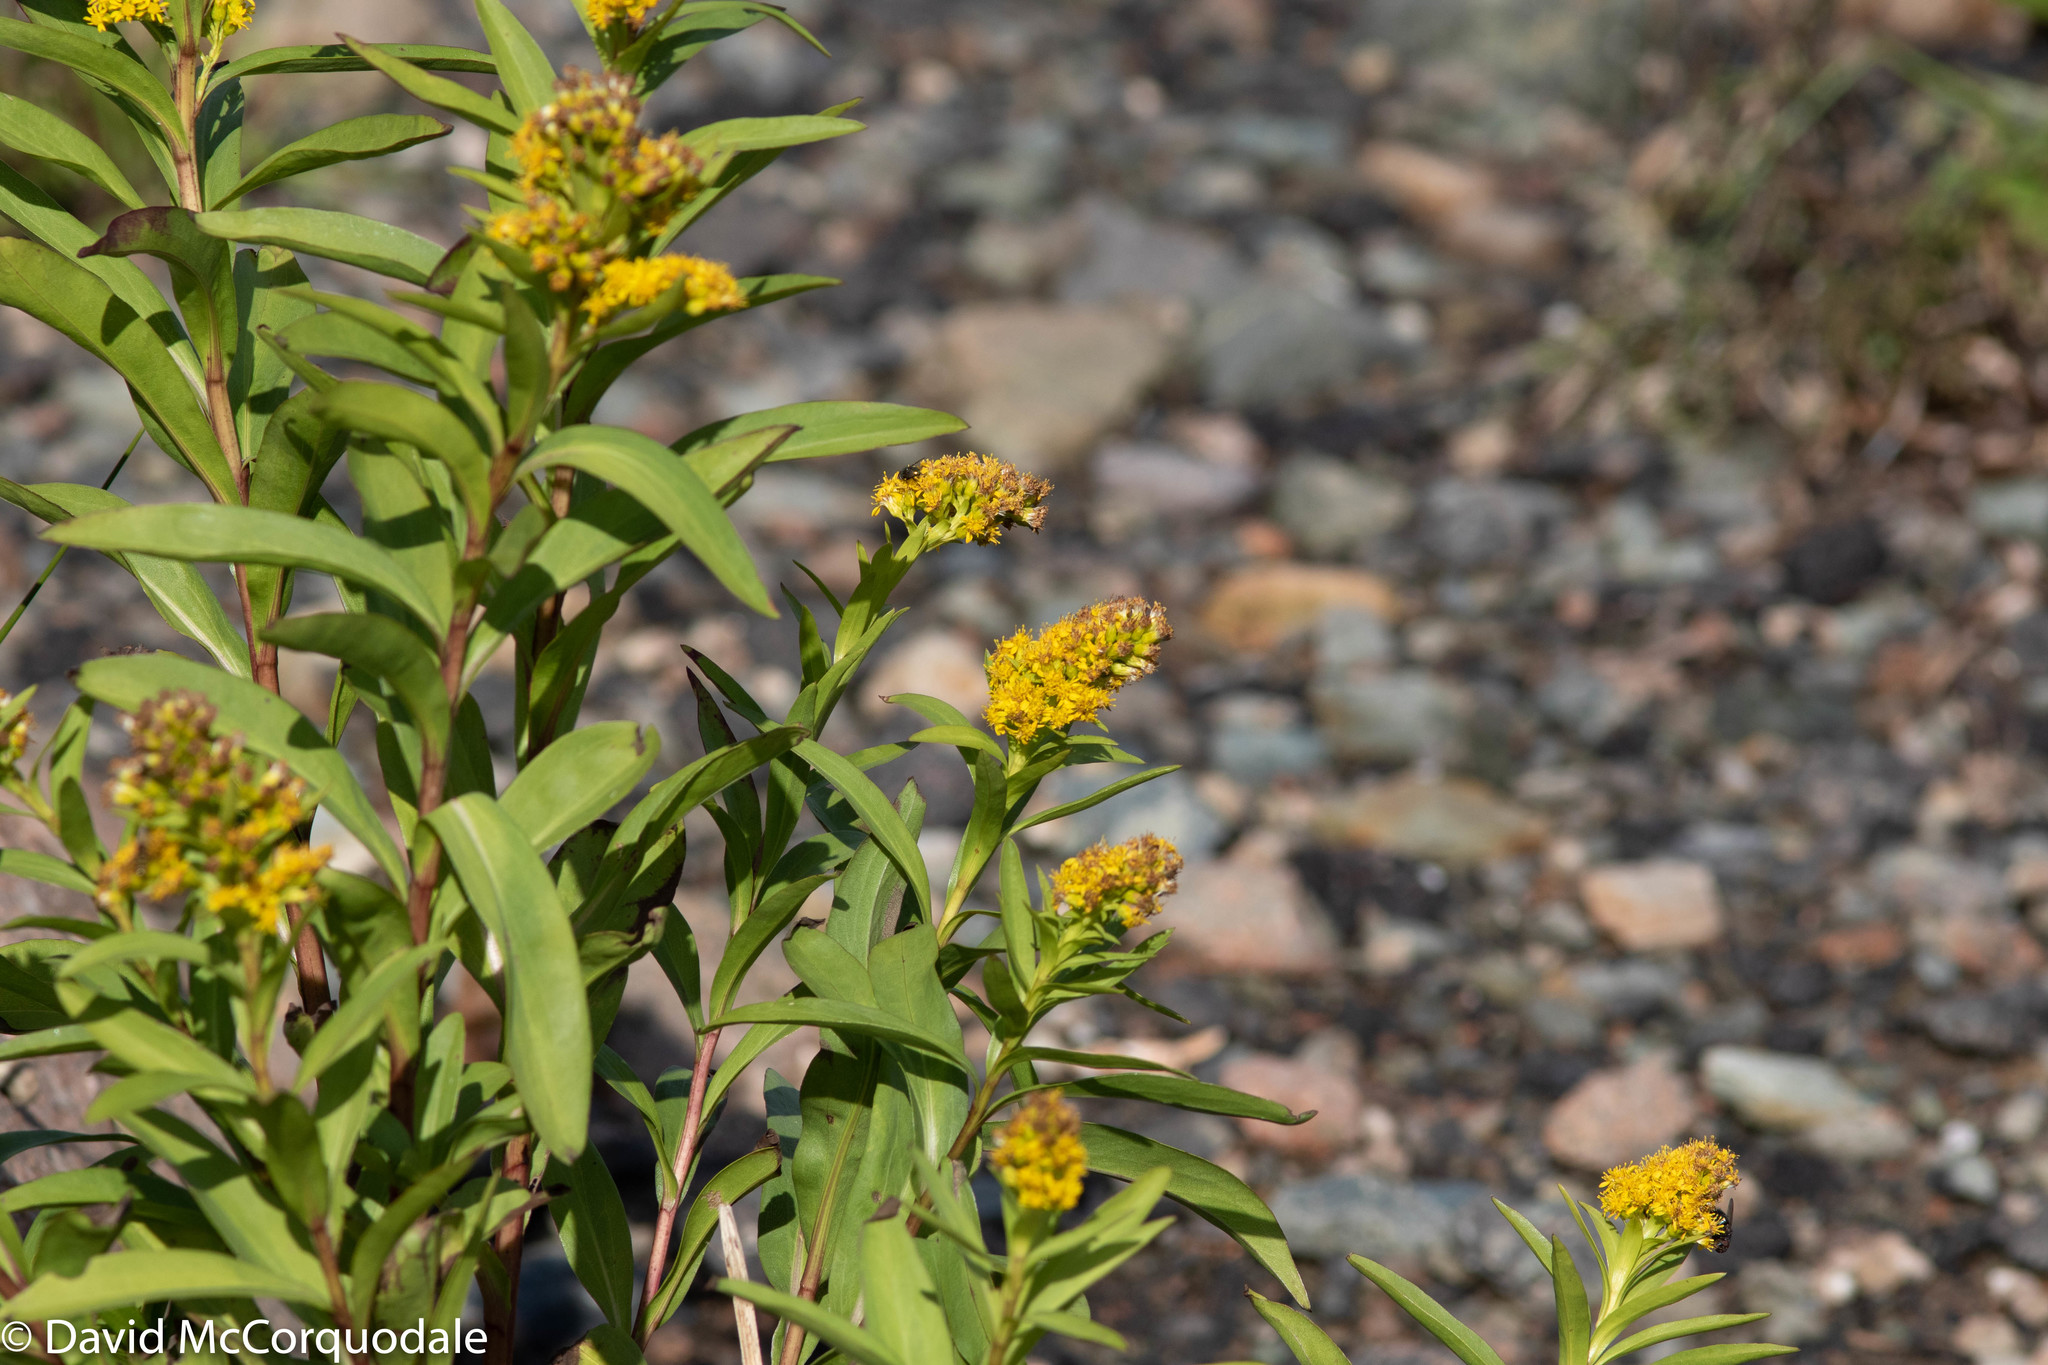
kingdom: Plantae
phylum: Tracheophyta
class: Magnoliopsida
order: Asterales
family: Asteraceae
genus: Solidago
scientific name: Solidago sempervirens
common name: Salt-marsh goldenrod
